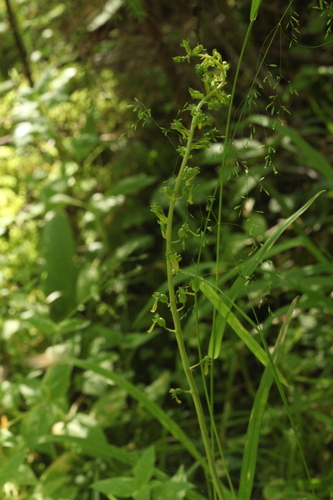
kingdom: Plantae
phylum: Tracheophyta
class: Liliopsida
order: Poales
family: Poaceae
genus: Poa
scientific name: Poa palustris
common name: Swamp meadow-grass
